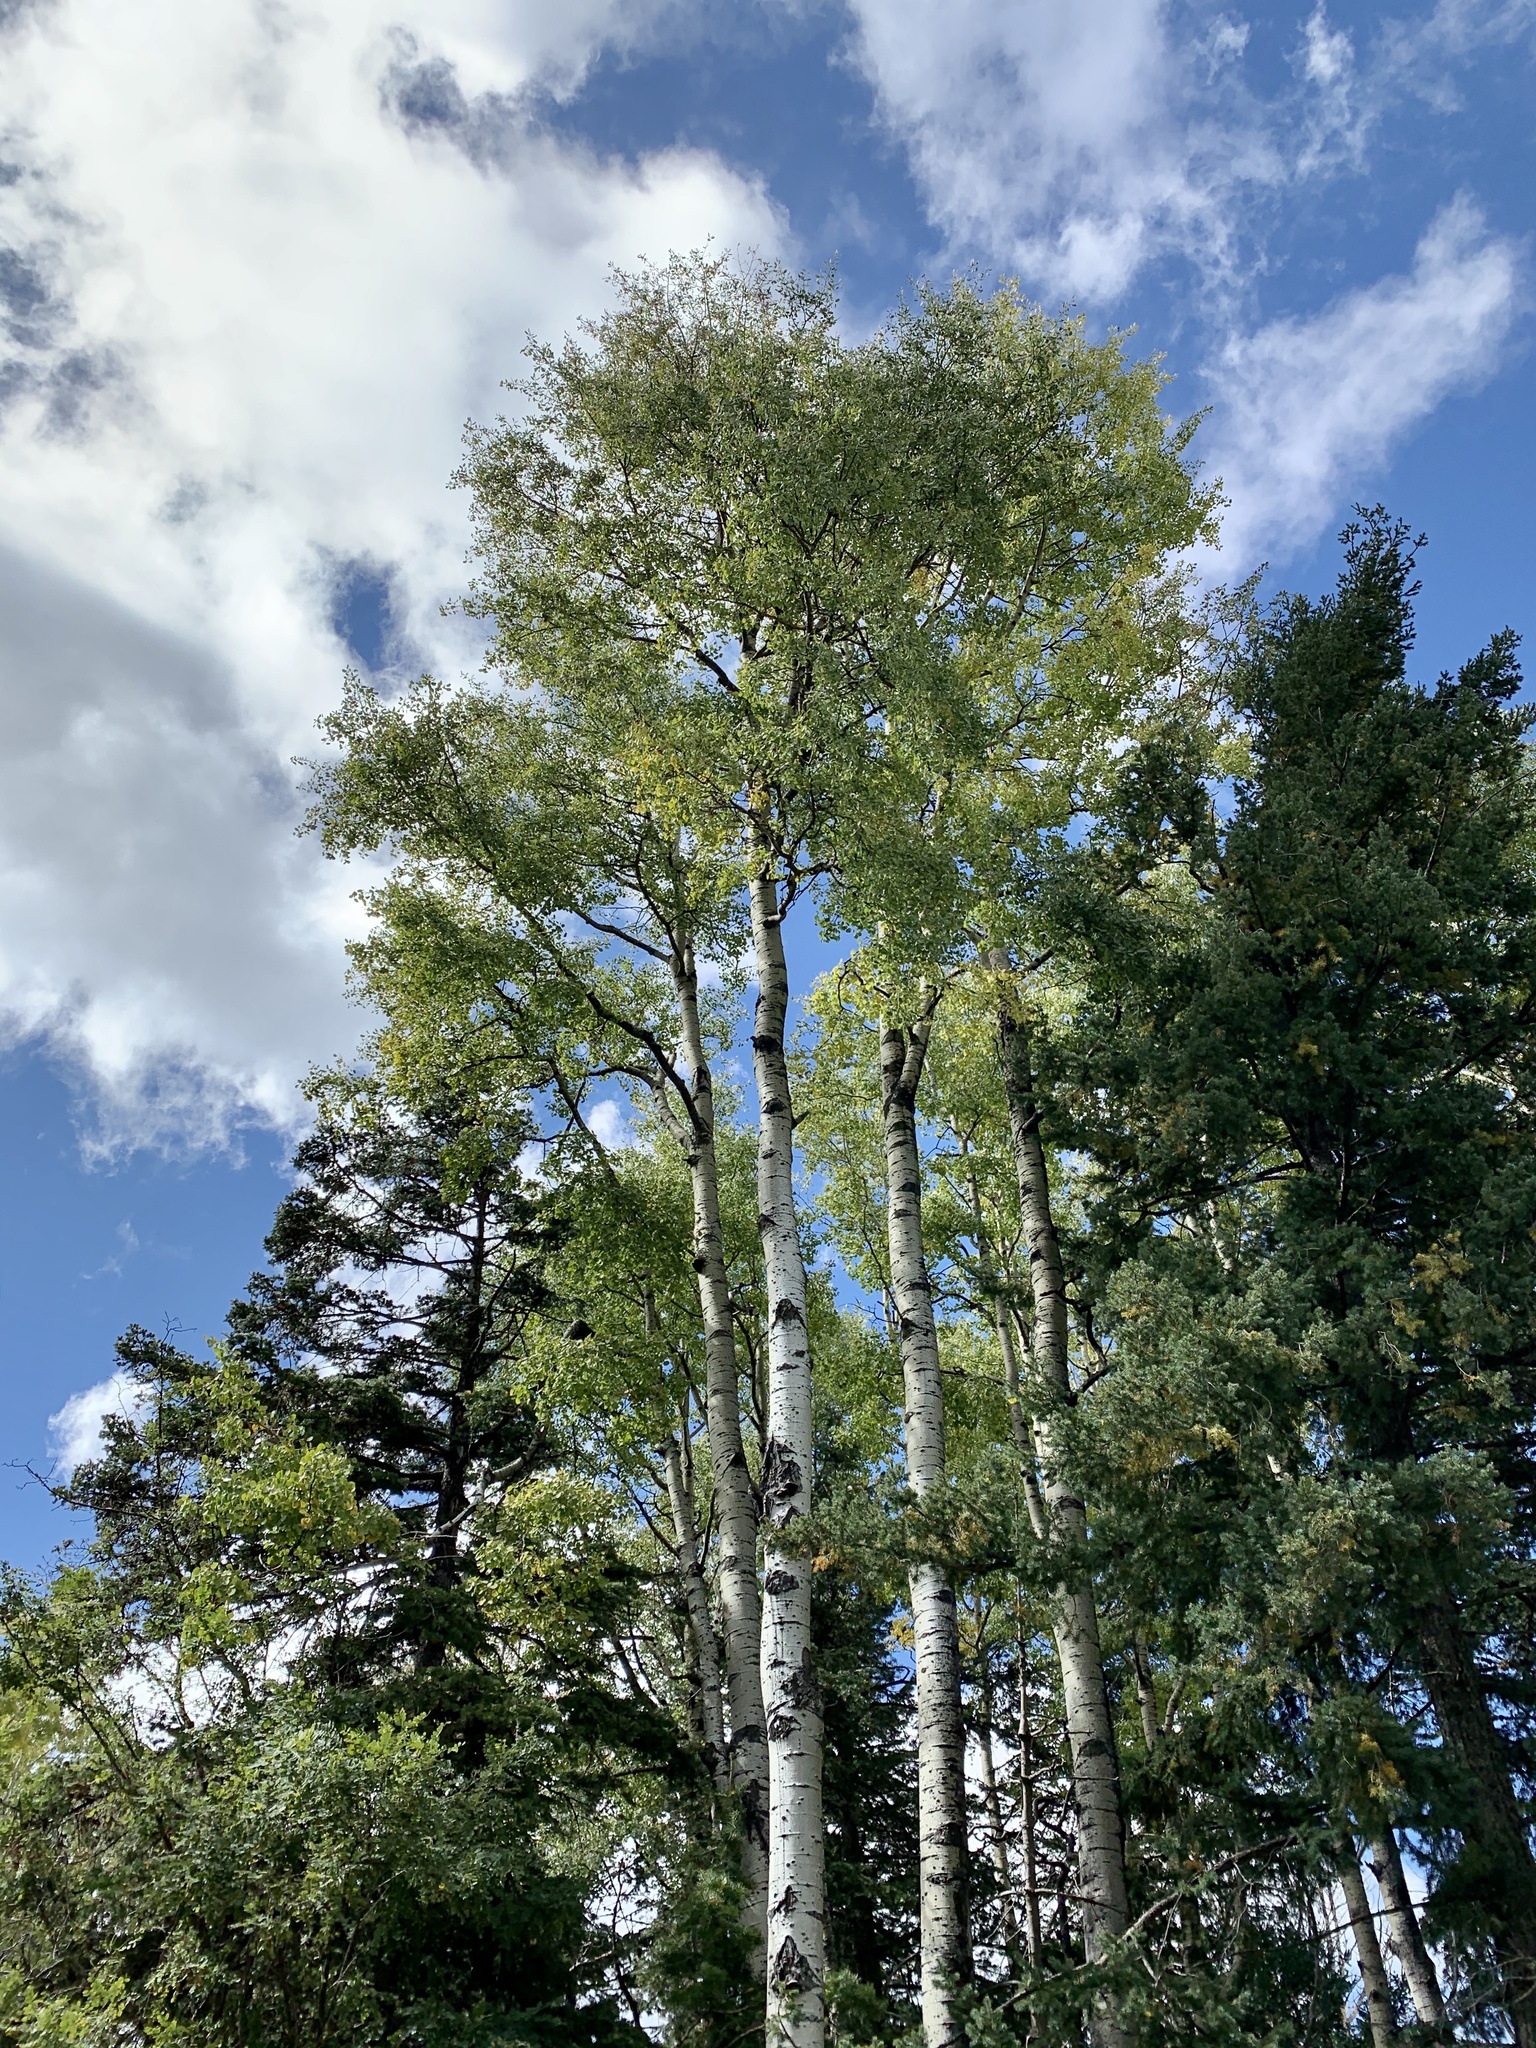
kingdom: Plantae
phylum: Tracheophyta
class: Magnoliopsida
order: Malpighiales
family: Salicaceae
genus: Populus
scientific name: Populus tremuloides
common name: Quaking aspen
